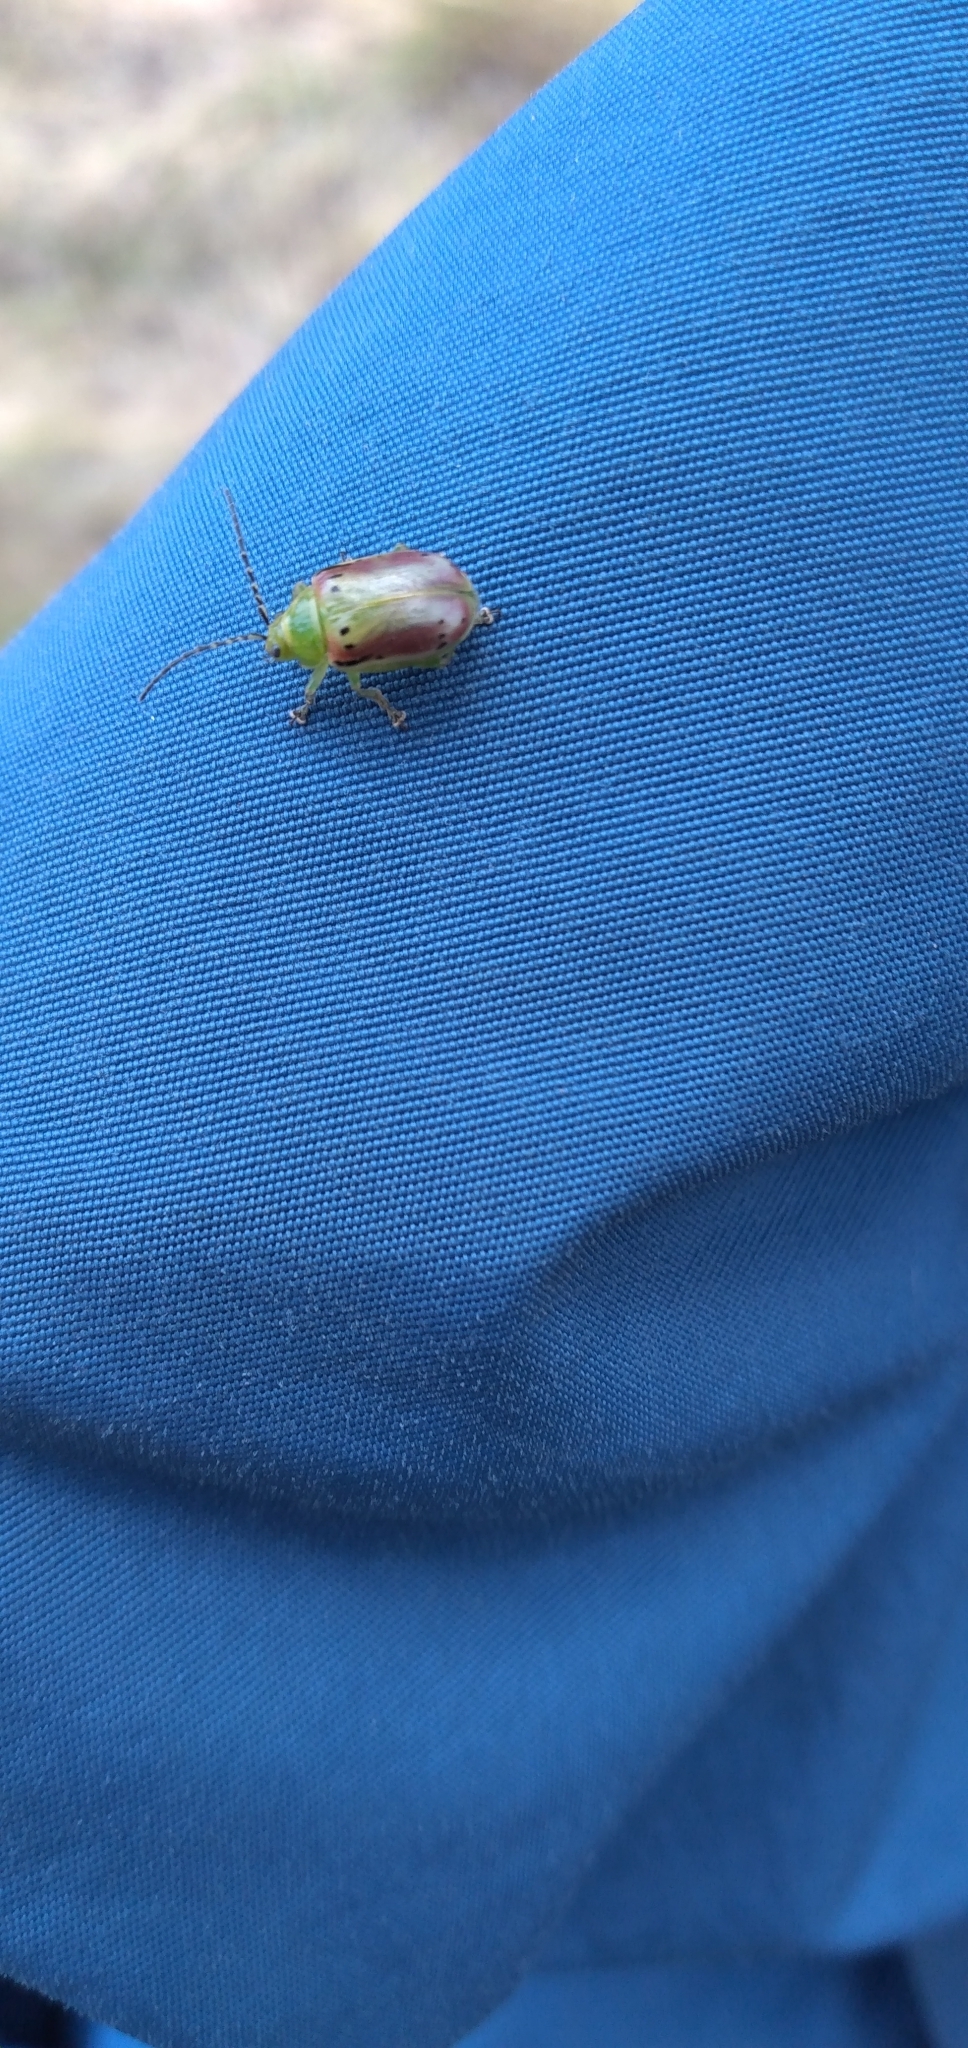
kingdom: Animalia
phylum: Arthropoda
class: Insecta
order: Coleoptera
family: Chrysomelidae
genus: Procalus
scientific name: Procalus
